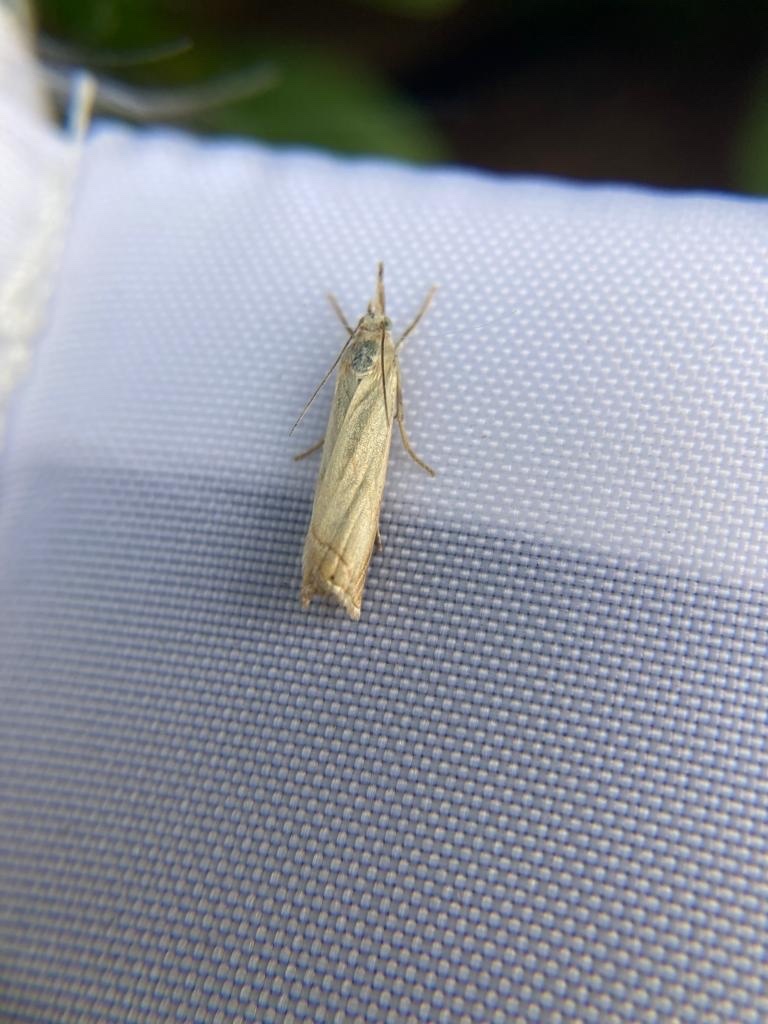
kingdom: Animalia
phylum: Arthropoda
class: Insecta
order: Lepidoptera
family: Crambidae
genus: Chrysoteuchia
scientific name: Chrysoteuchia culmella
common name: Garden grass-veneer
